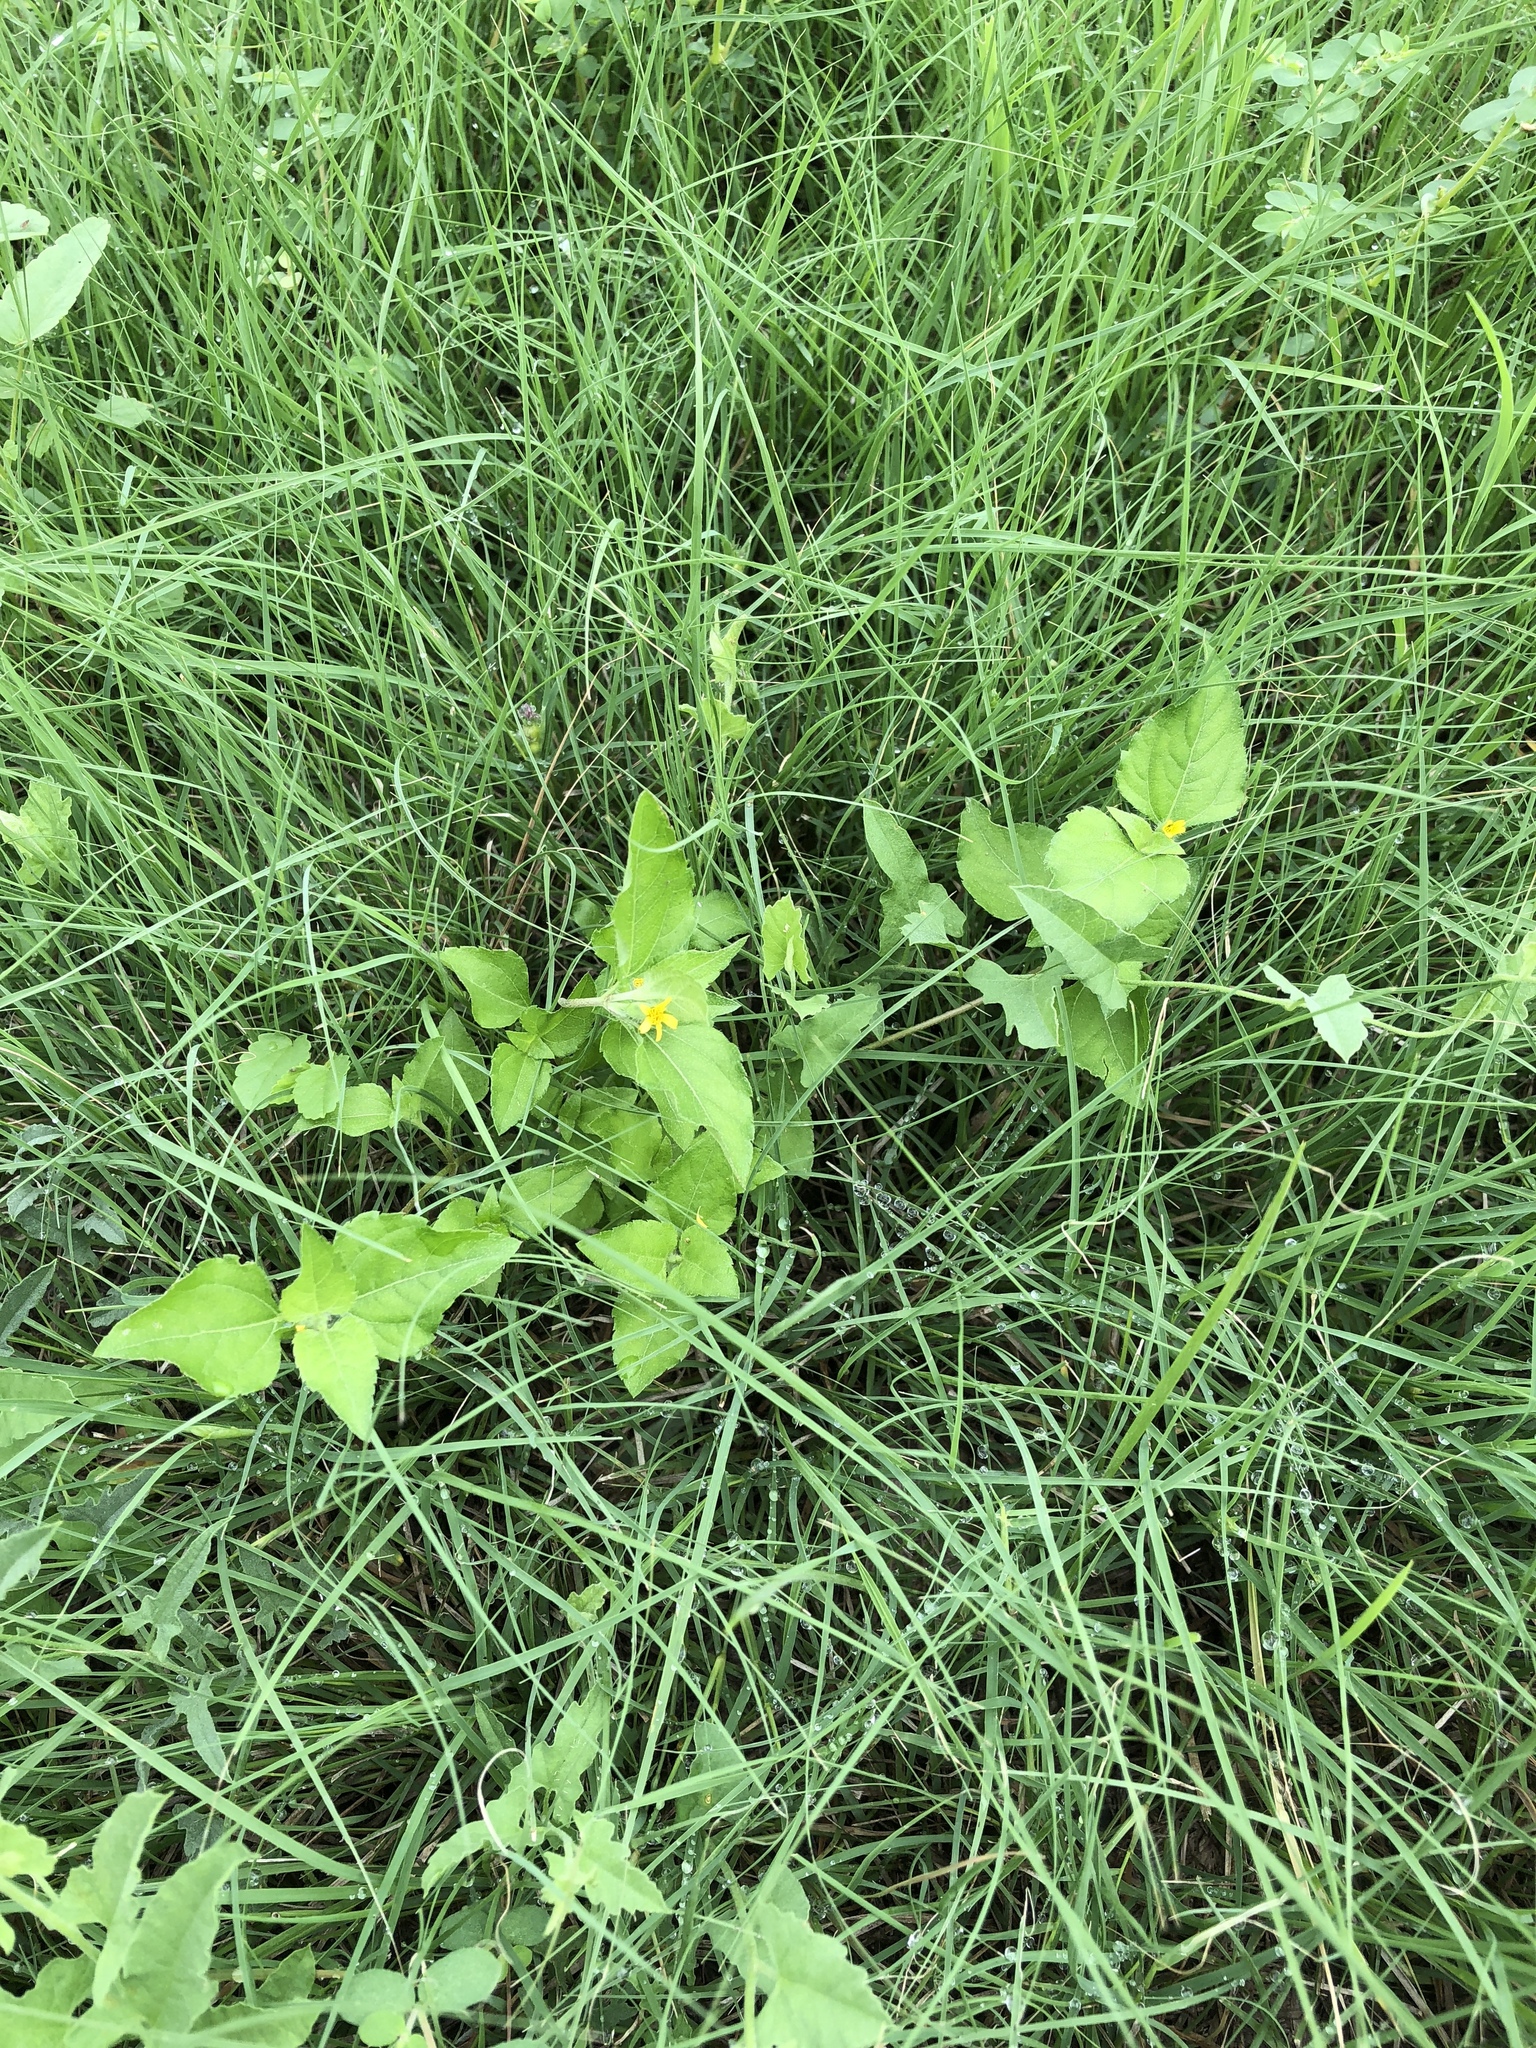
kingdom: Plantae
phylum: Tracheophyta
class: Magnoliopsida
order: Asterales
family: Asteraceae
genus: Calyptocarpus
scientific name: Calyptocarpus vialis
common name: Straggler daisy
